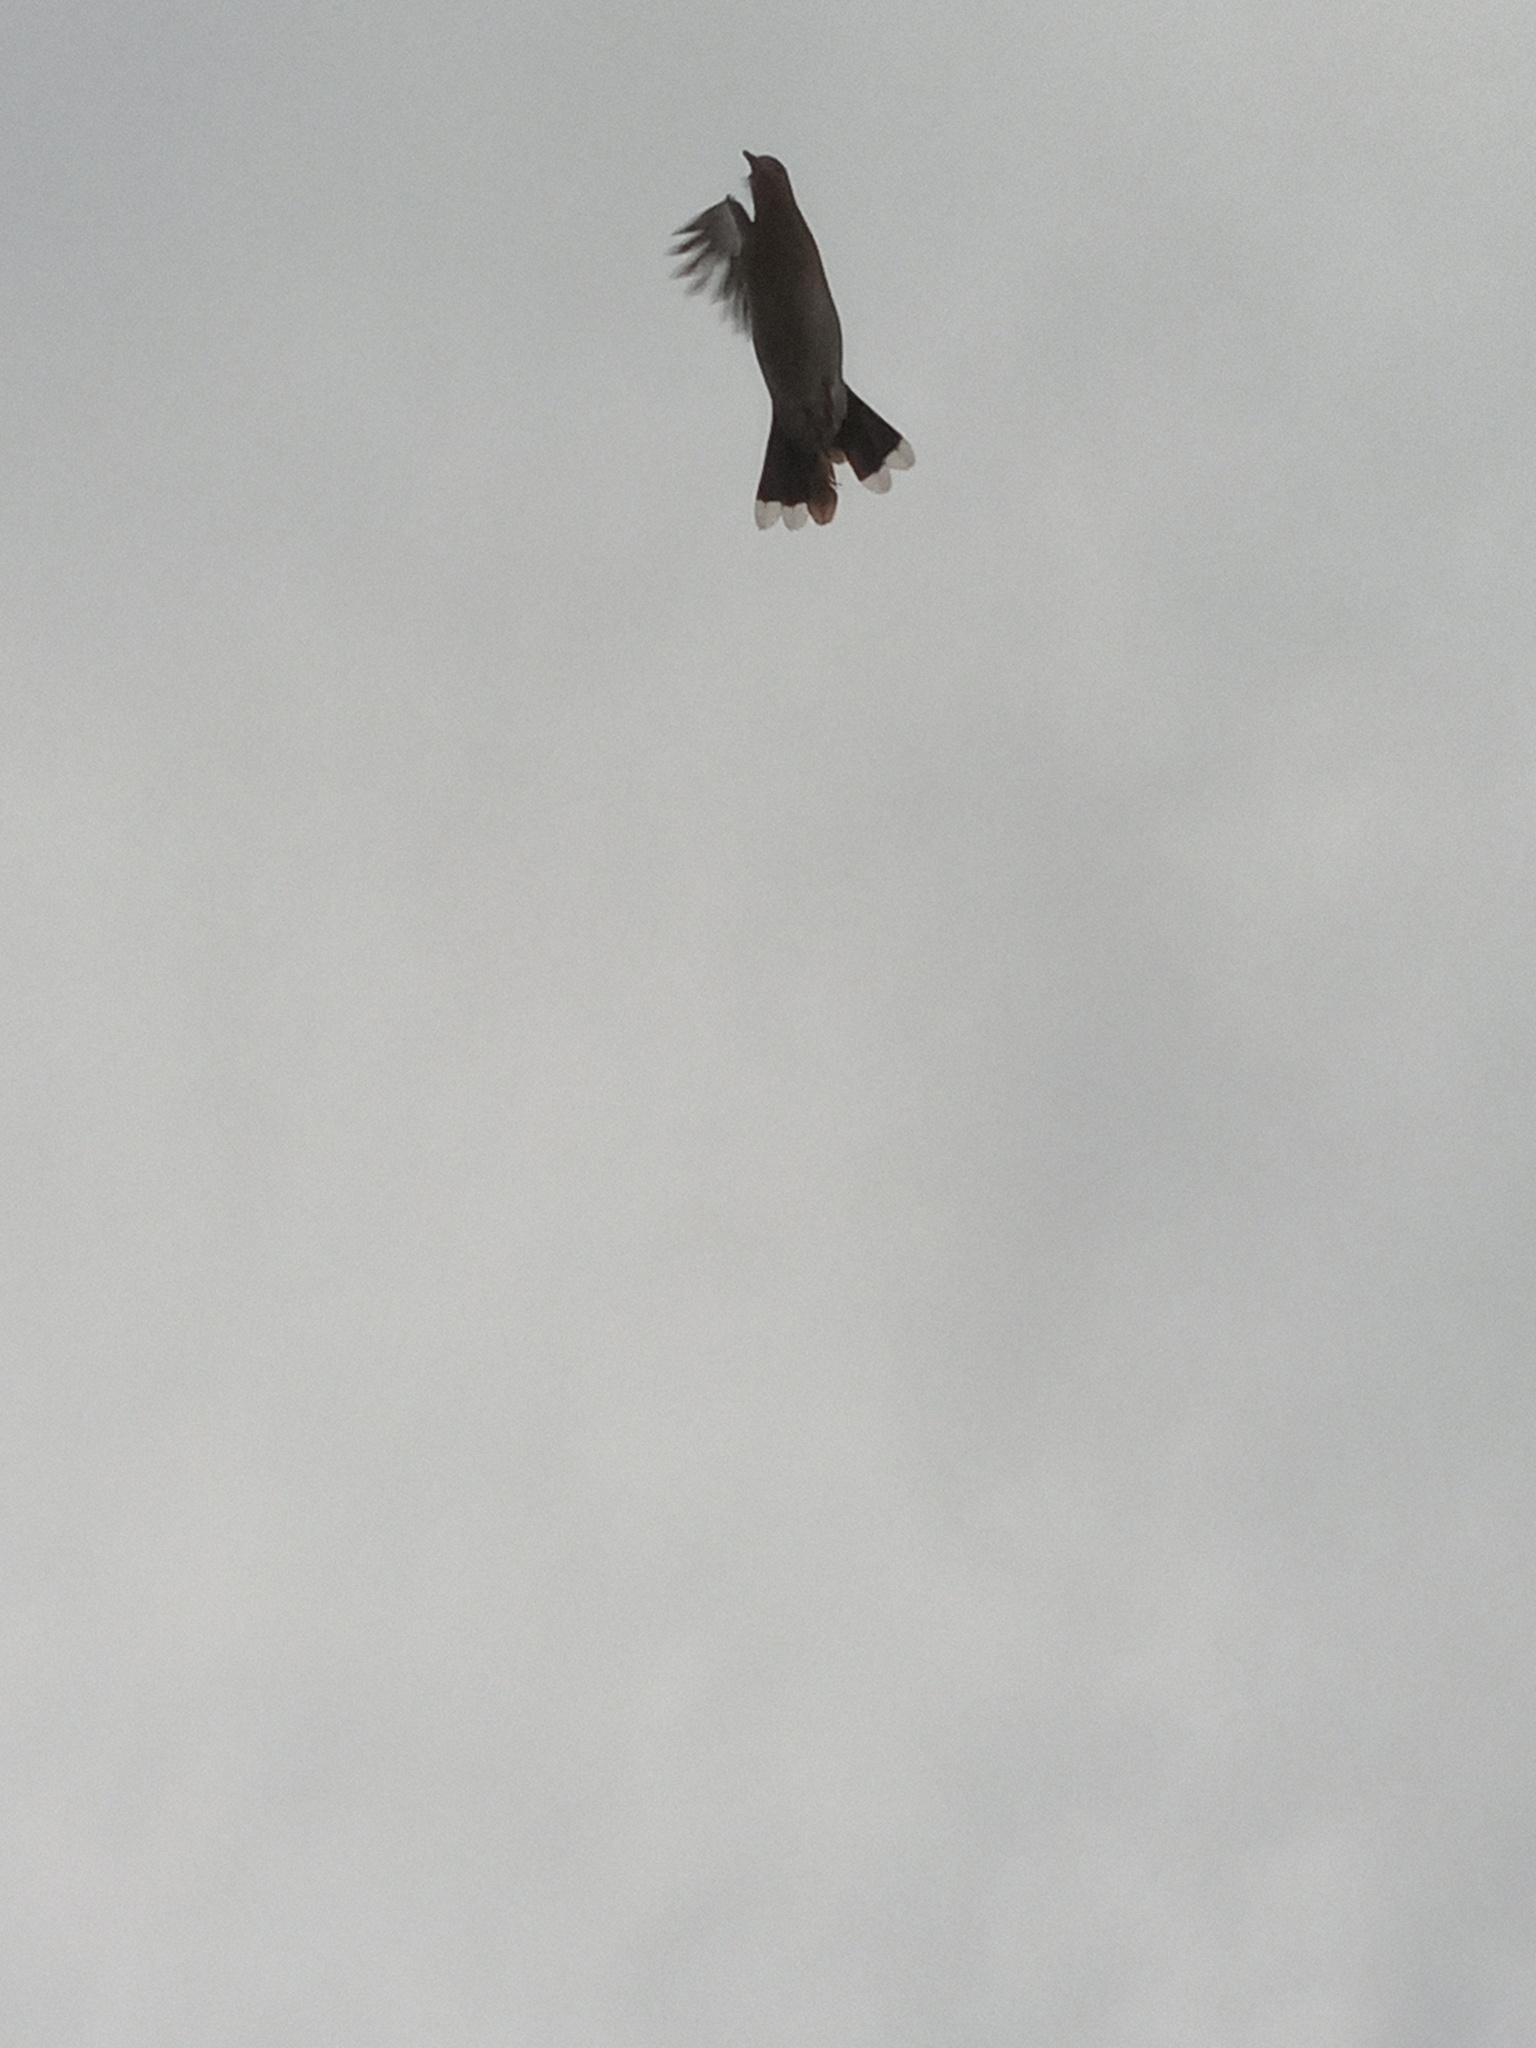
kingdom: Animalia
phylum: Chordata
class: Aves
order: Columbiformes
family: Columbidae
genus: Zenaida
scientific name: Zenaida asiatica
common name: White-winged dove
